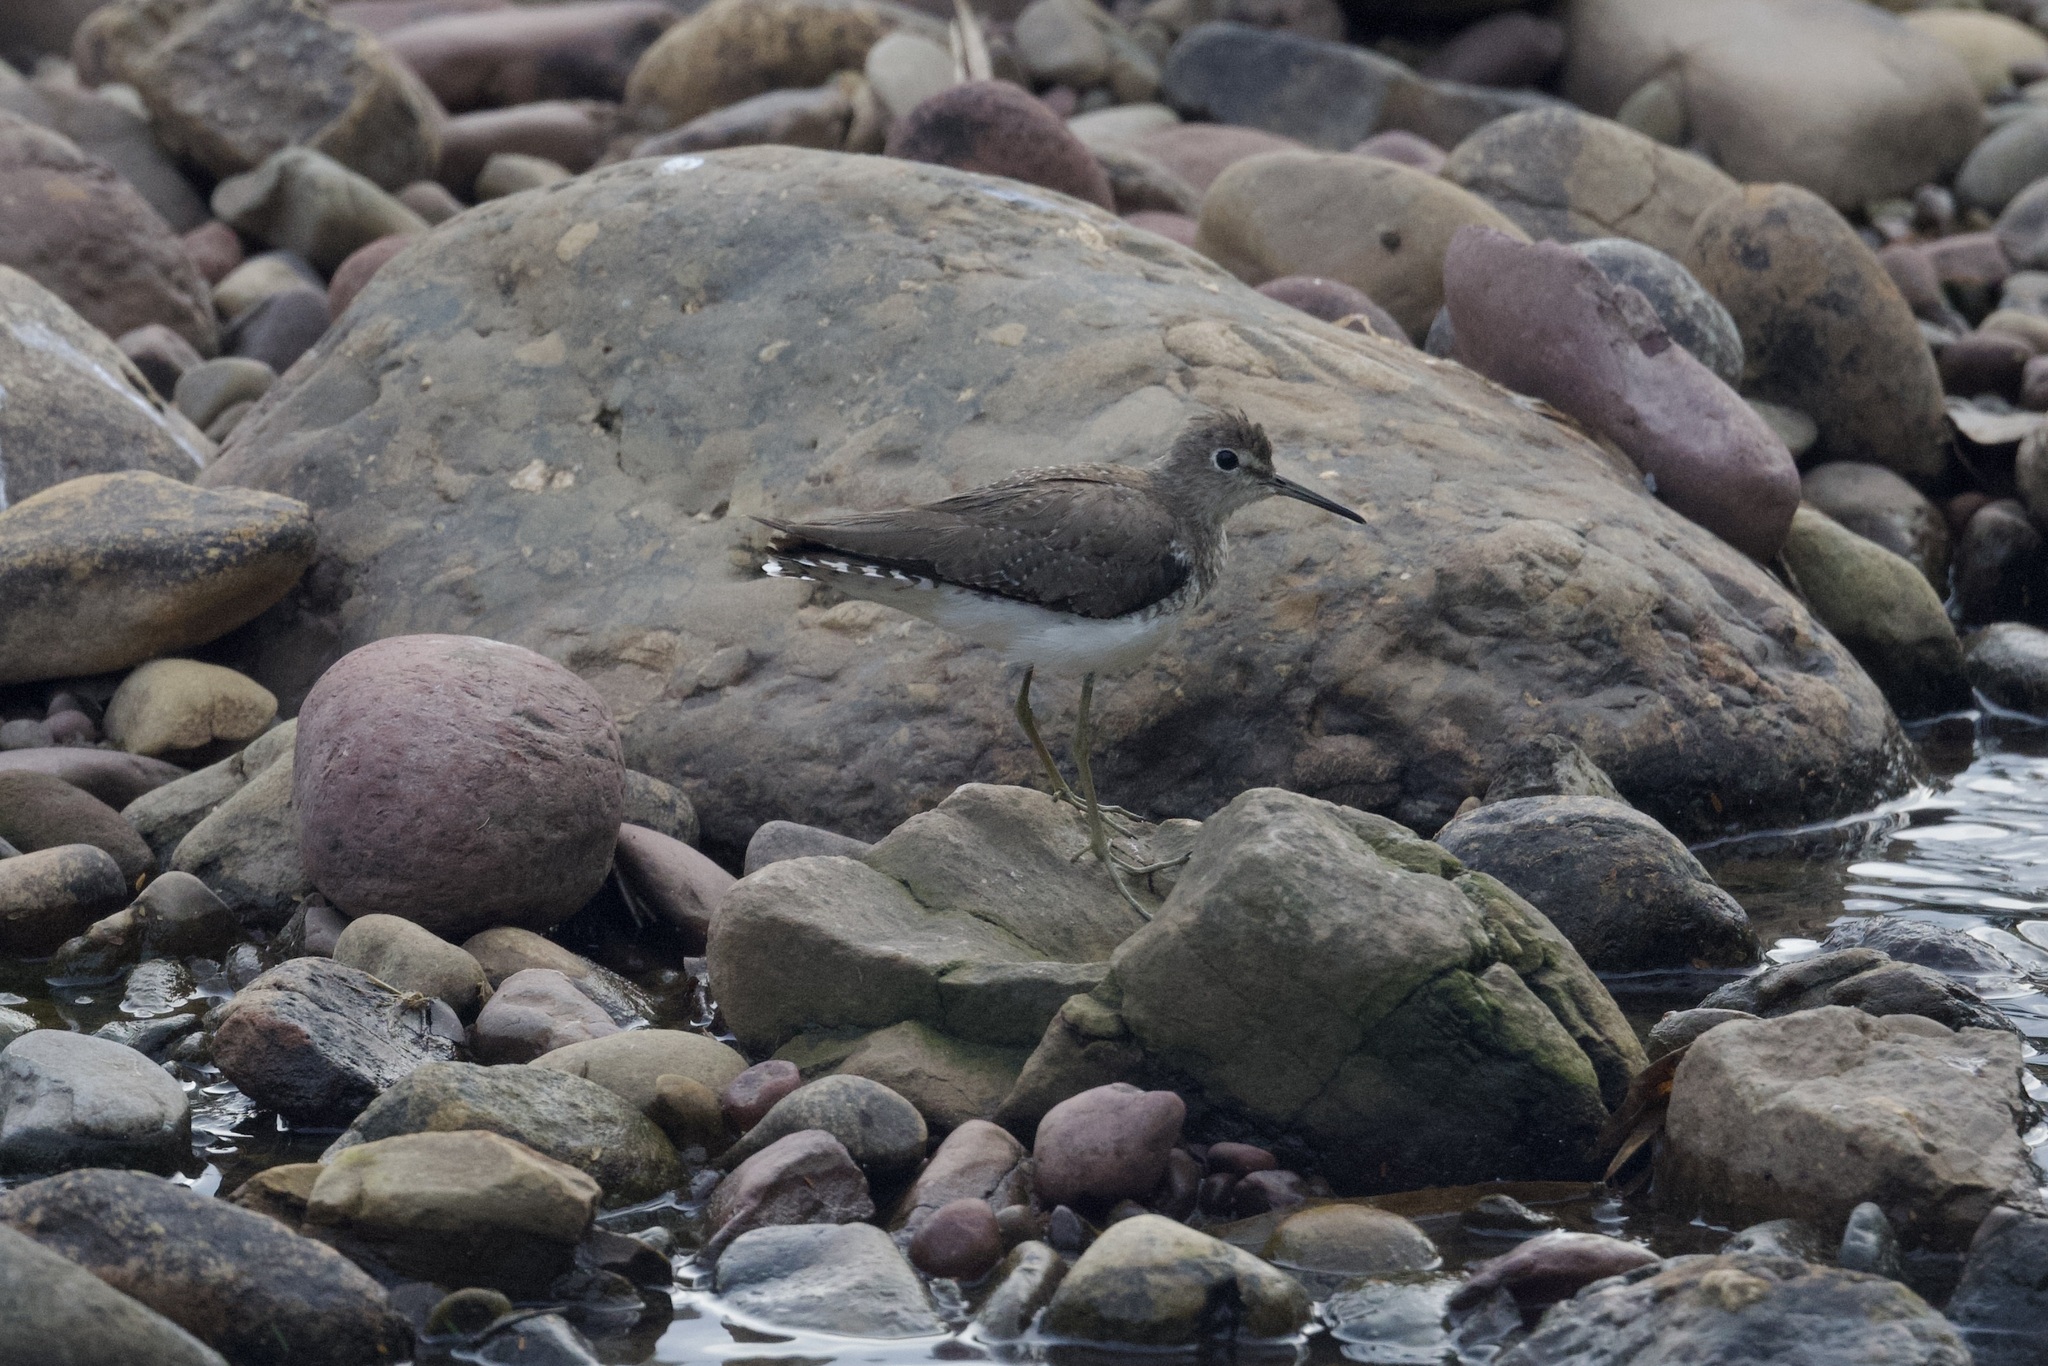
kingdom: Animalia
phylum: Chordata
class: Aves
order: Charadriiformes
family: Scolopacidae
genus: Tringa
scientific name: Tringa solitaria
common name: Solitary sandpiper
